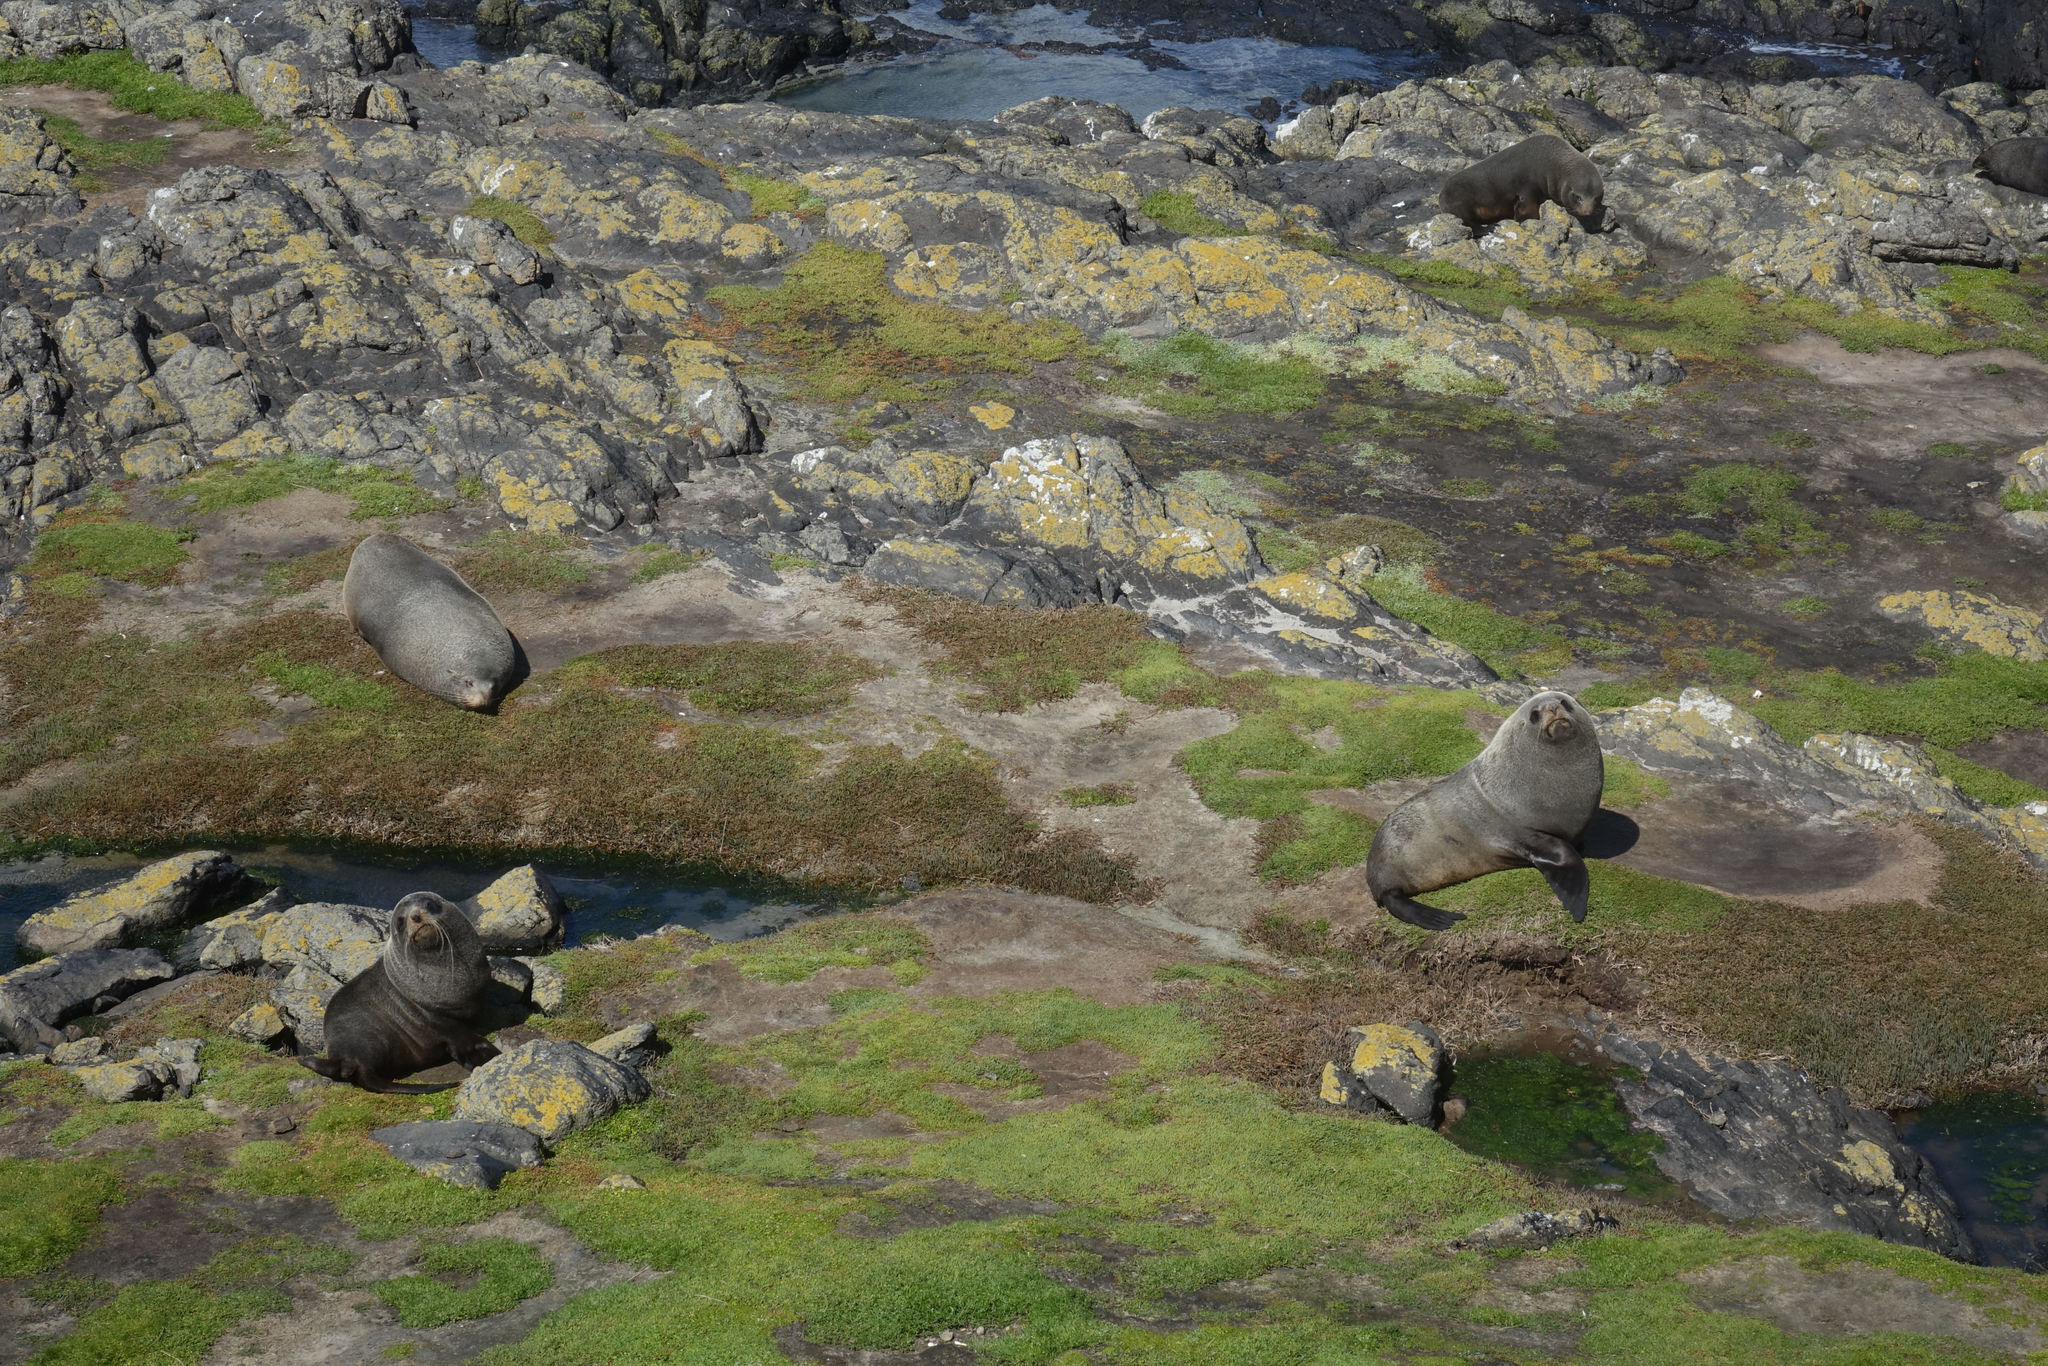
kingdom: Animalia
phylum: Chordata
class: Mammalia
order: Carnivora
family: Otariidae
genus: Arctocephalus
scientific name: Arctocephalus forsteri
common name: New zealand fur seal
